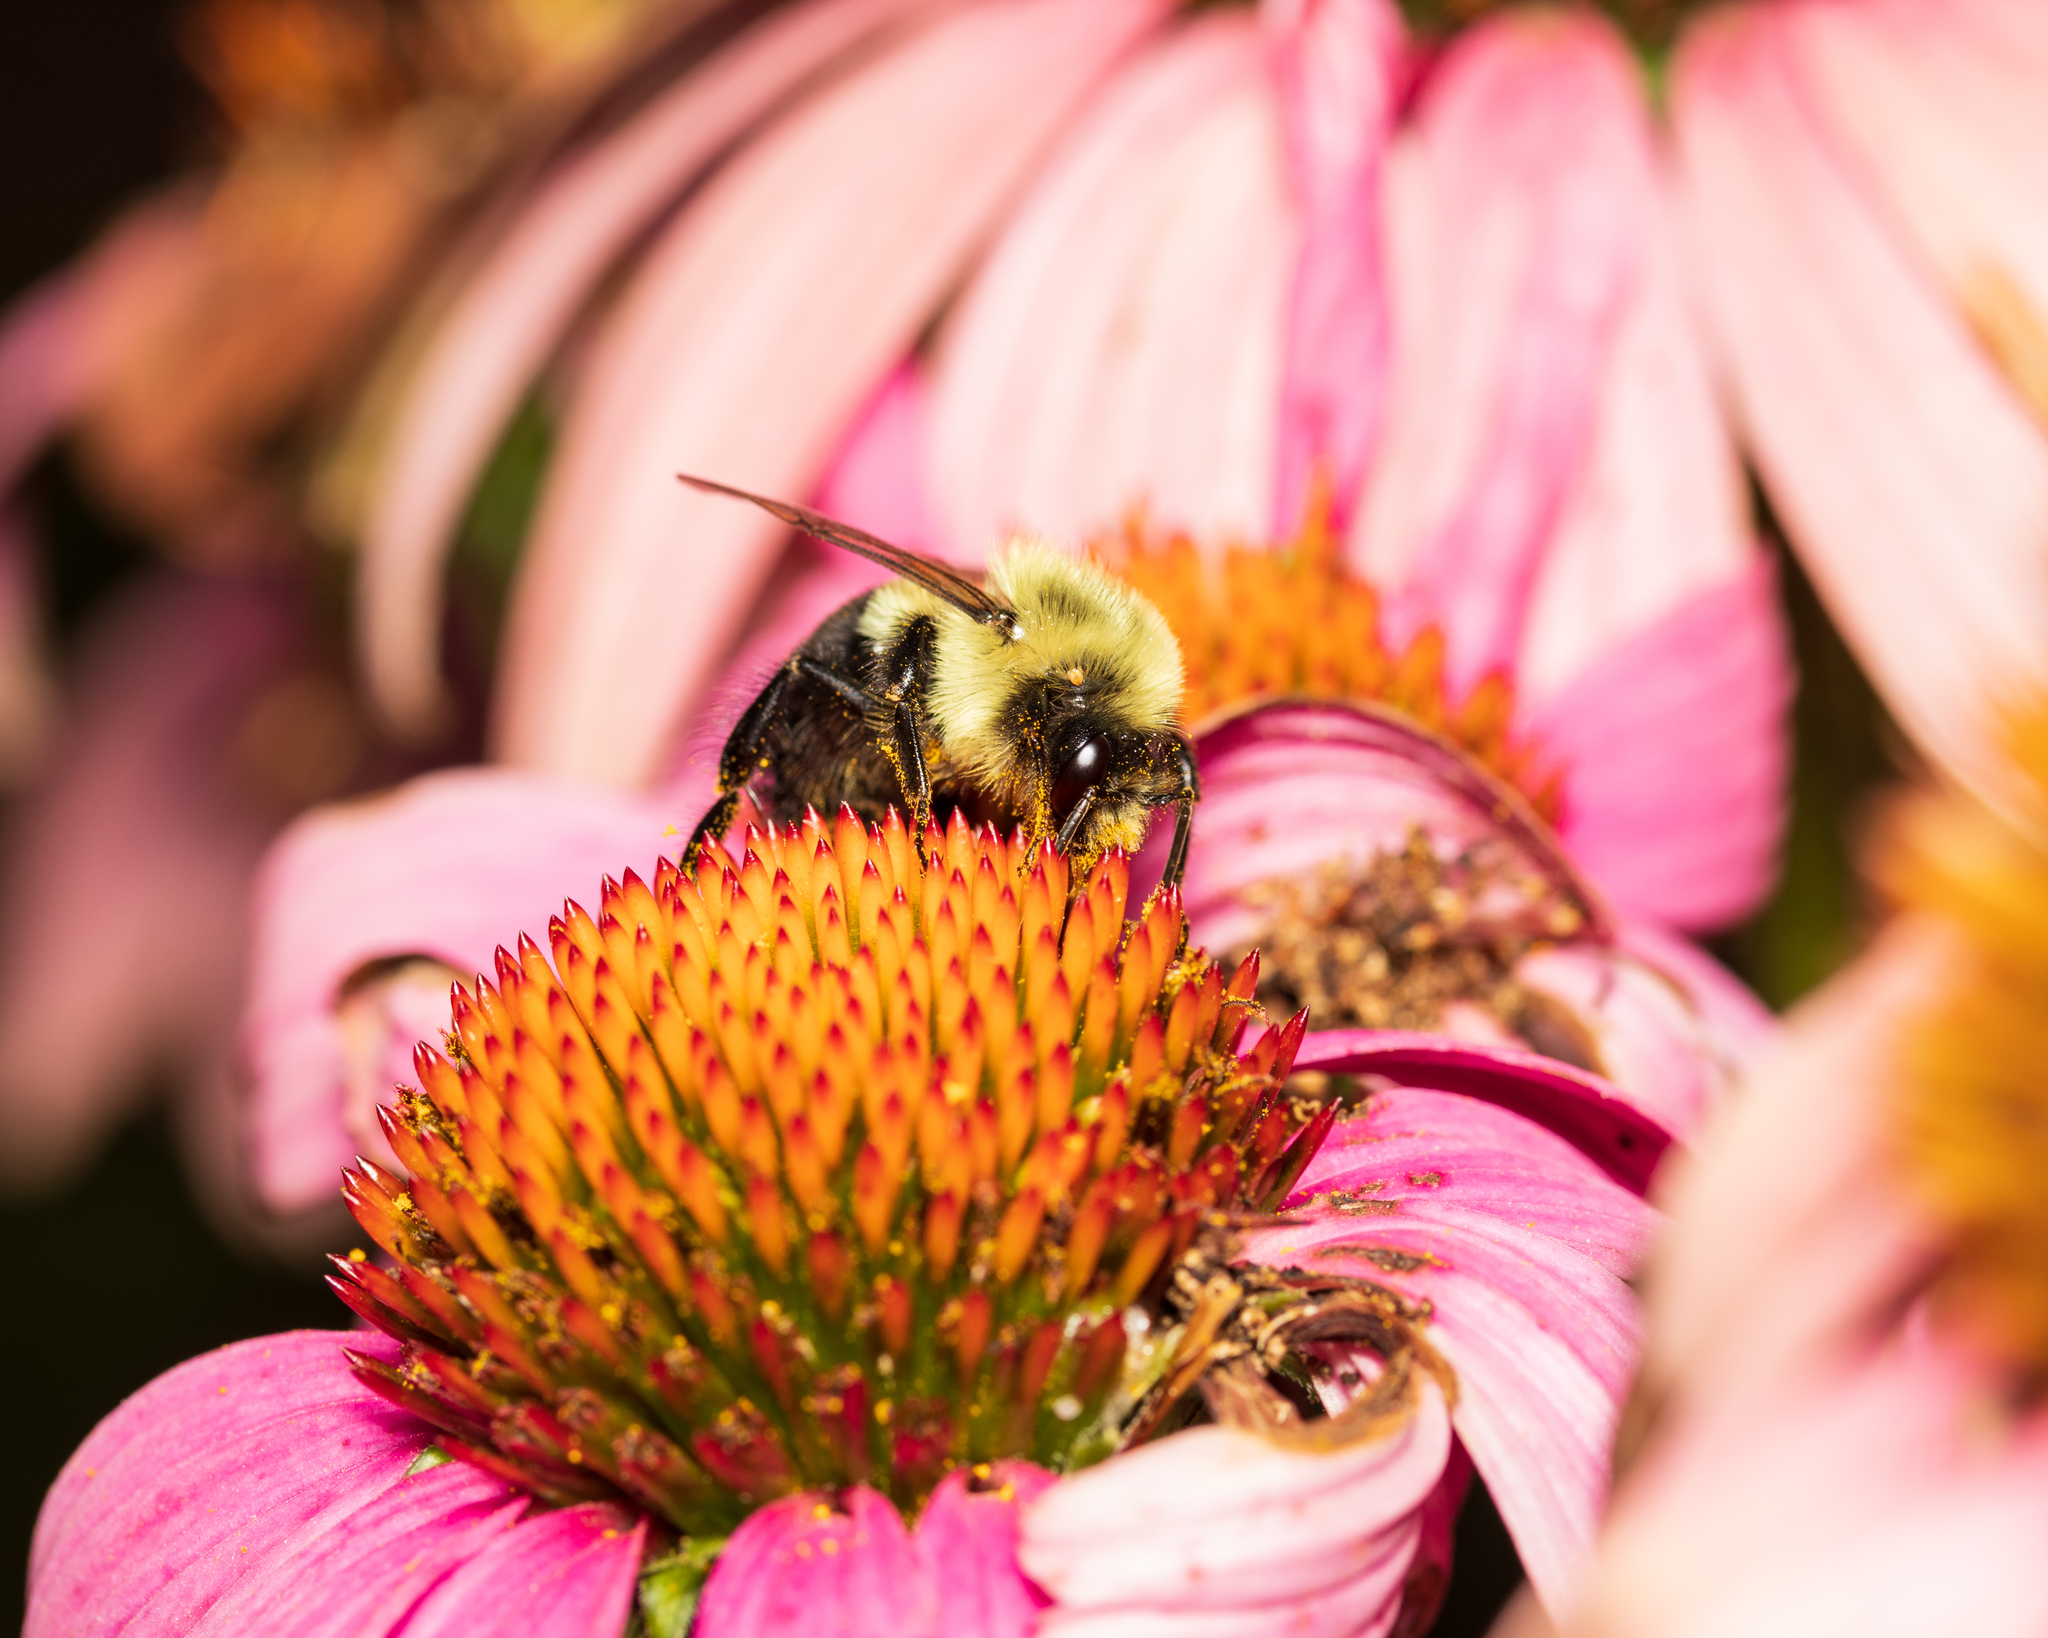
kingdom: Animalia
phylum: Arthropoda
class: Insecta
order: Hymenoptera
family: Apidae
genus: Bombus
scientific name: Bombus impatiens
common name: Common eastern bumble bee
